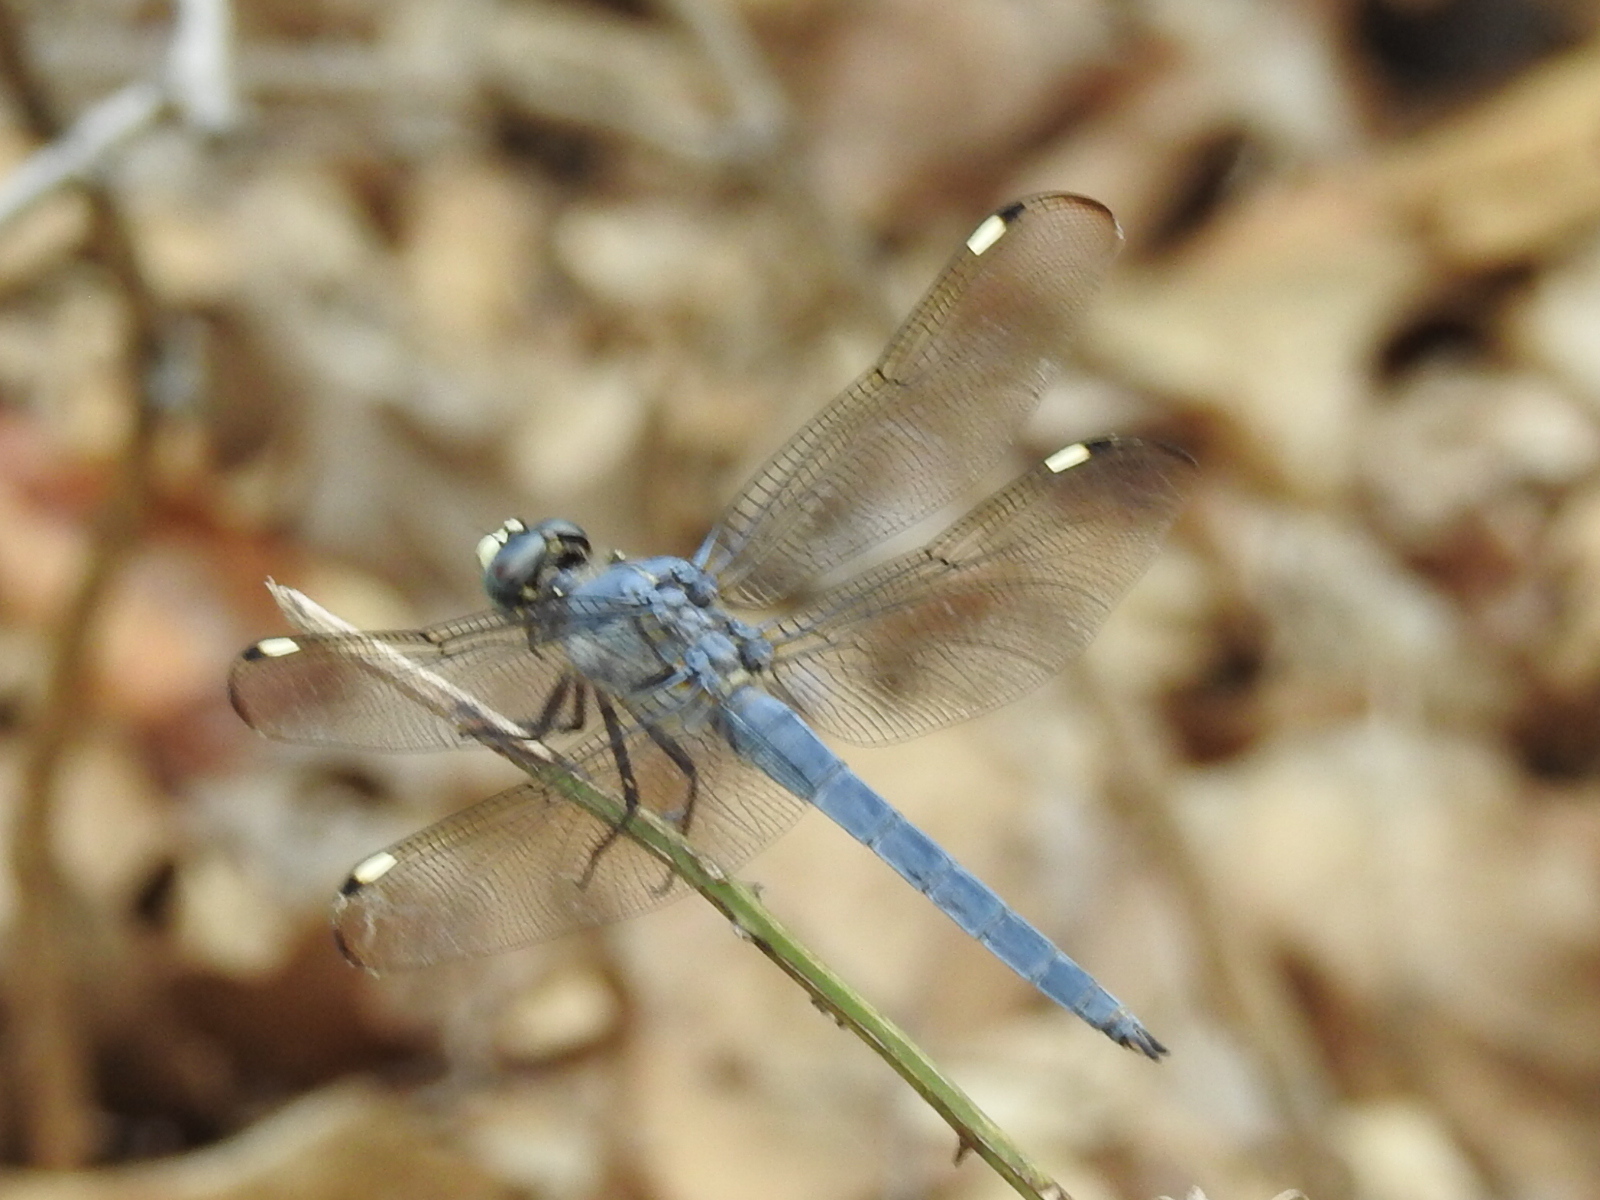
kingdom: Animalia
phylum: Arthropoda
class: Insecta
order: Odonata
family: Libellulidae
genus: Libellula
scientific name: Libellula comanche
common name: Comanche skimmer
